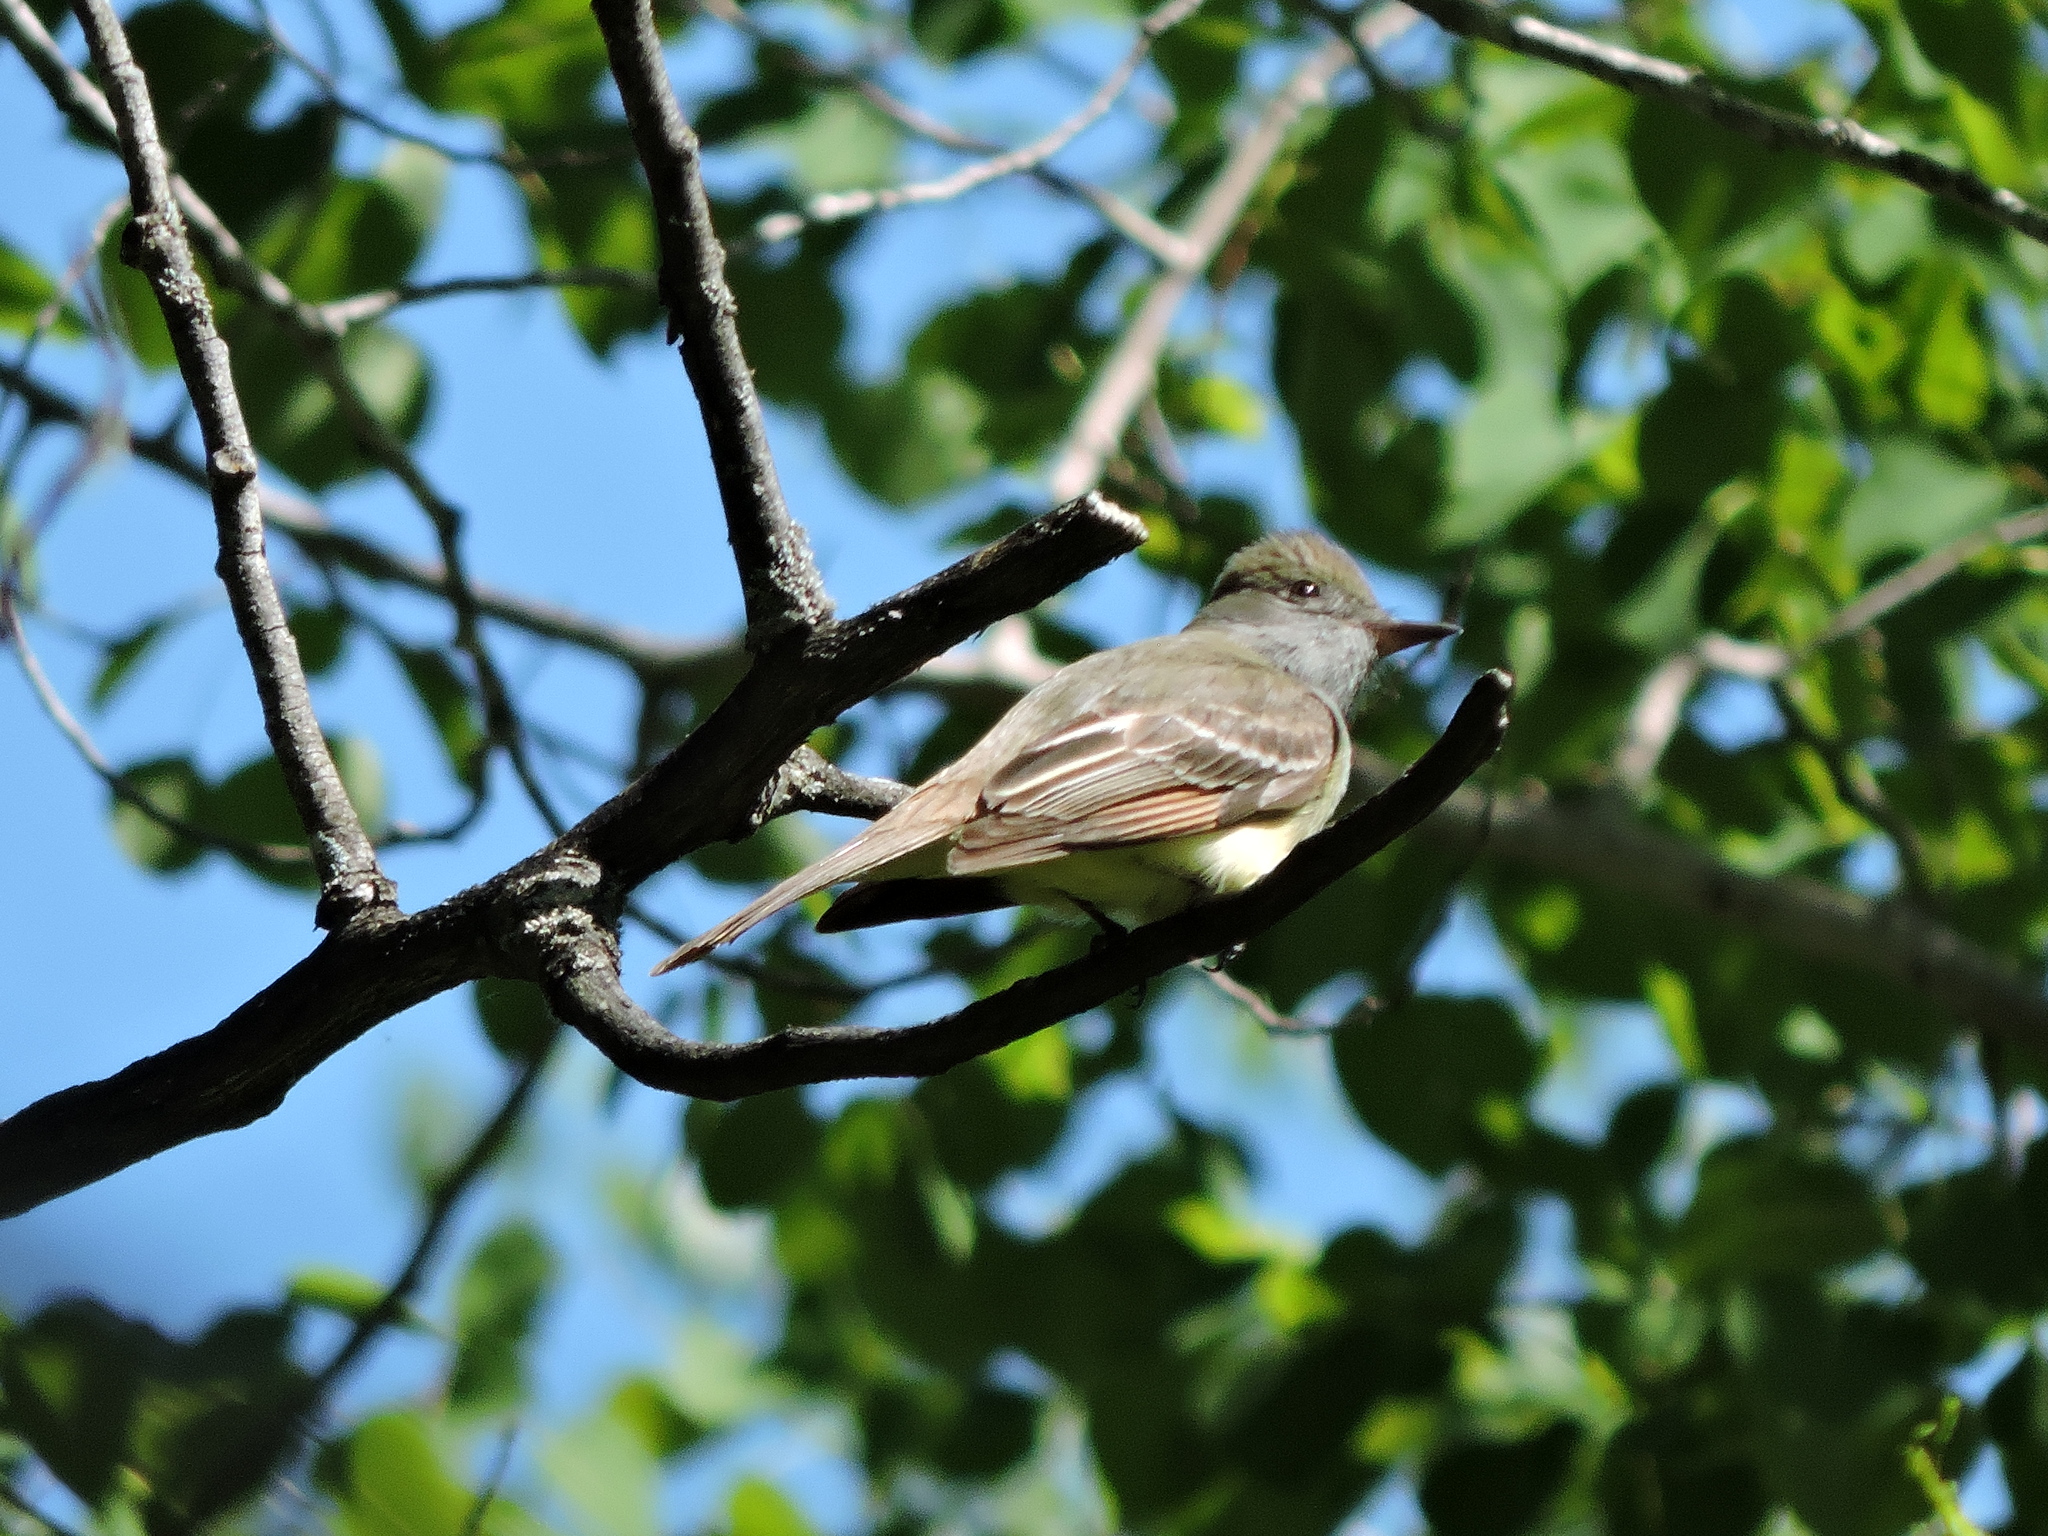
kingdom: Animalia
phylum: Chordata
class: Aves
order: Passeriformes
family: Tyrannidae
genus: Myiarchus
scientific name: Myiarchus crinitus
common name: Great crested flycatcher
